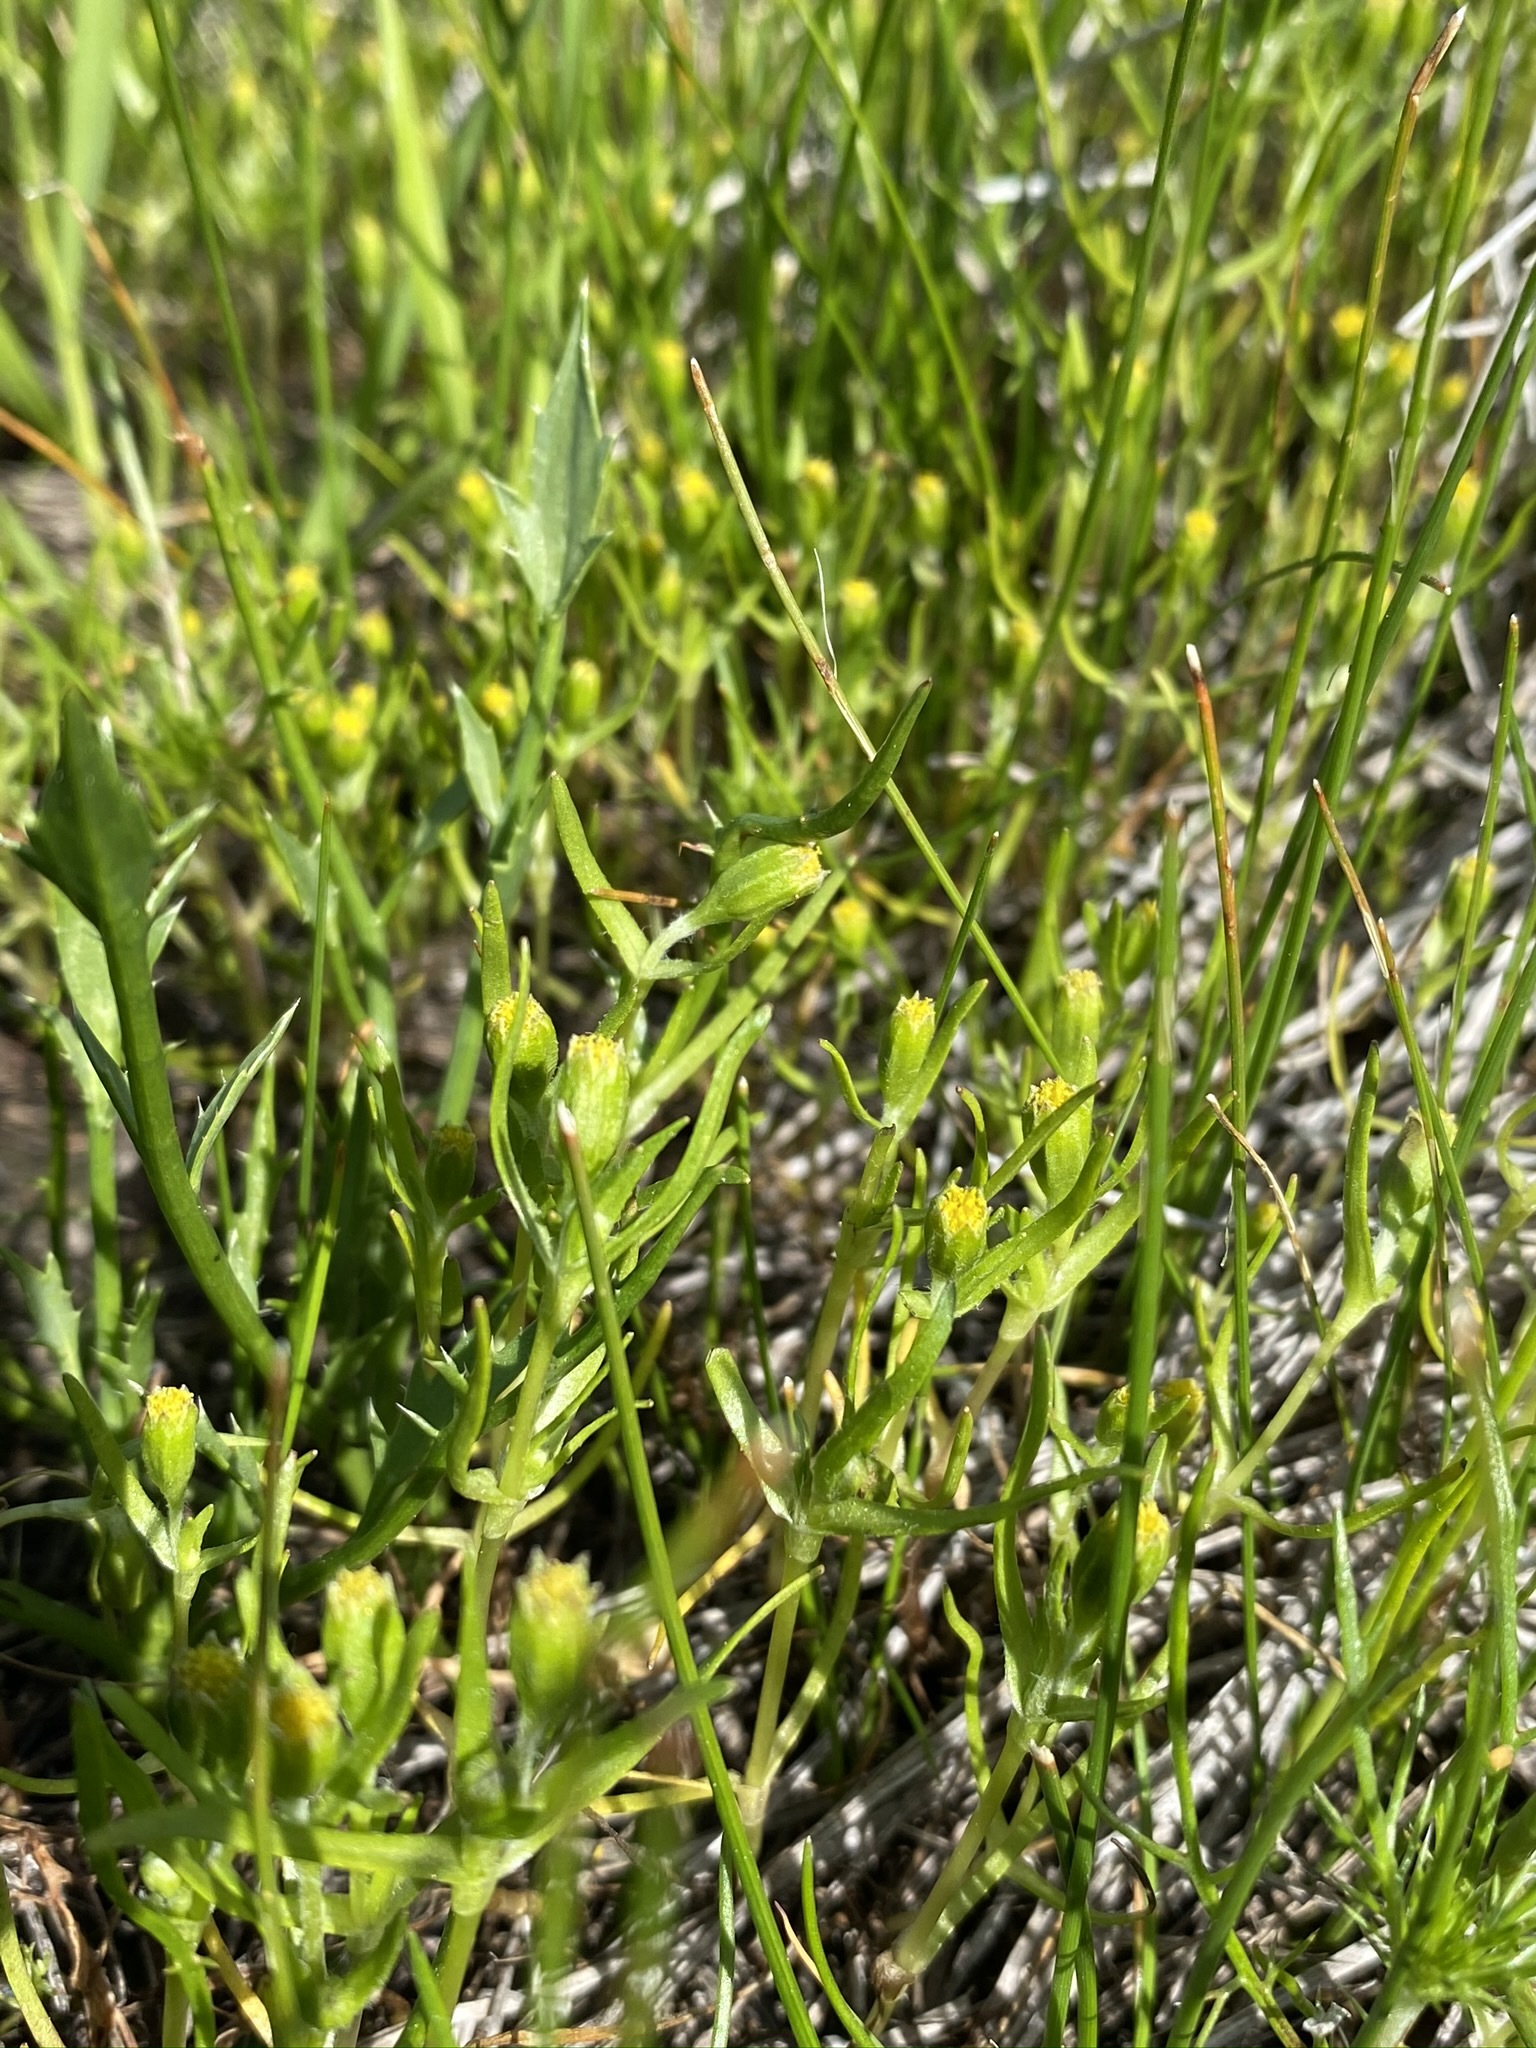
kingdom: Plantae
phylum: Tracheophyta
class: Magnoliopsida
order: Asterales
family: Asteraceae
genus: Lasthenia
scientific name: Lasthenia glaberrima
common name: Smooth goldfields
